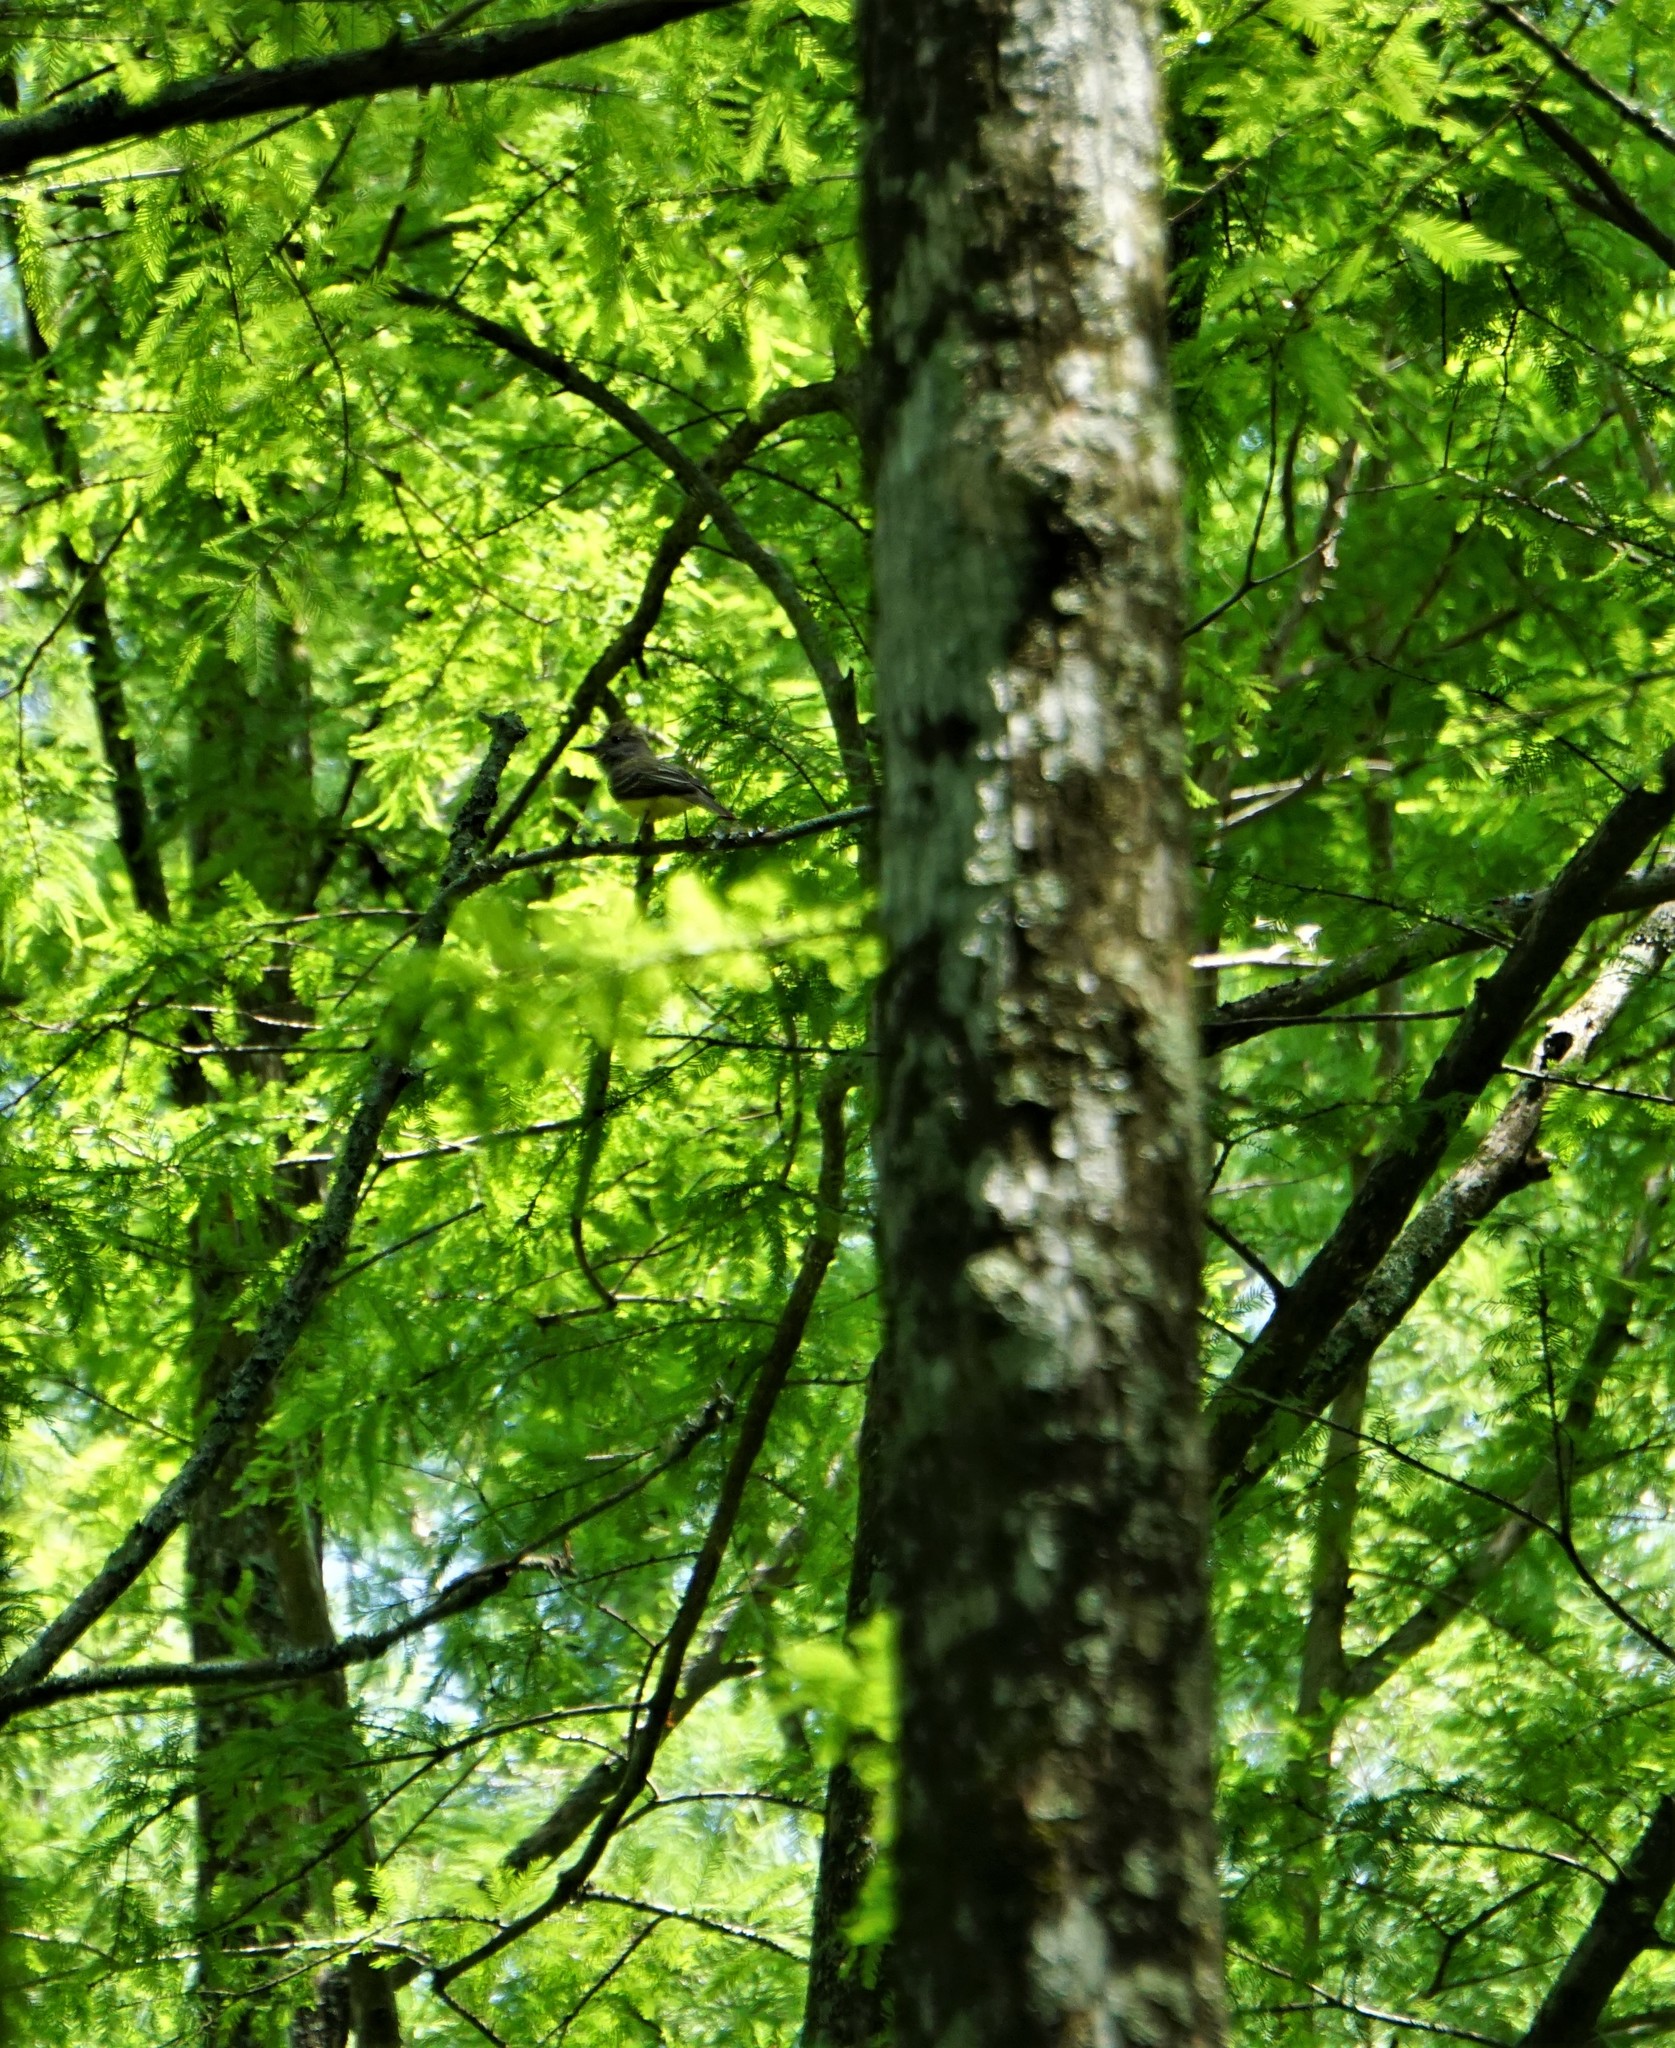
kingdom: Animalia
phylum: Chordata
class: Aves
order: Passeriformes
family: Tyrannidae
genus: Myiarchus
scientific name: Myiarchus crinitus
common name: Great crested flycatcher
